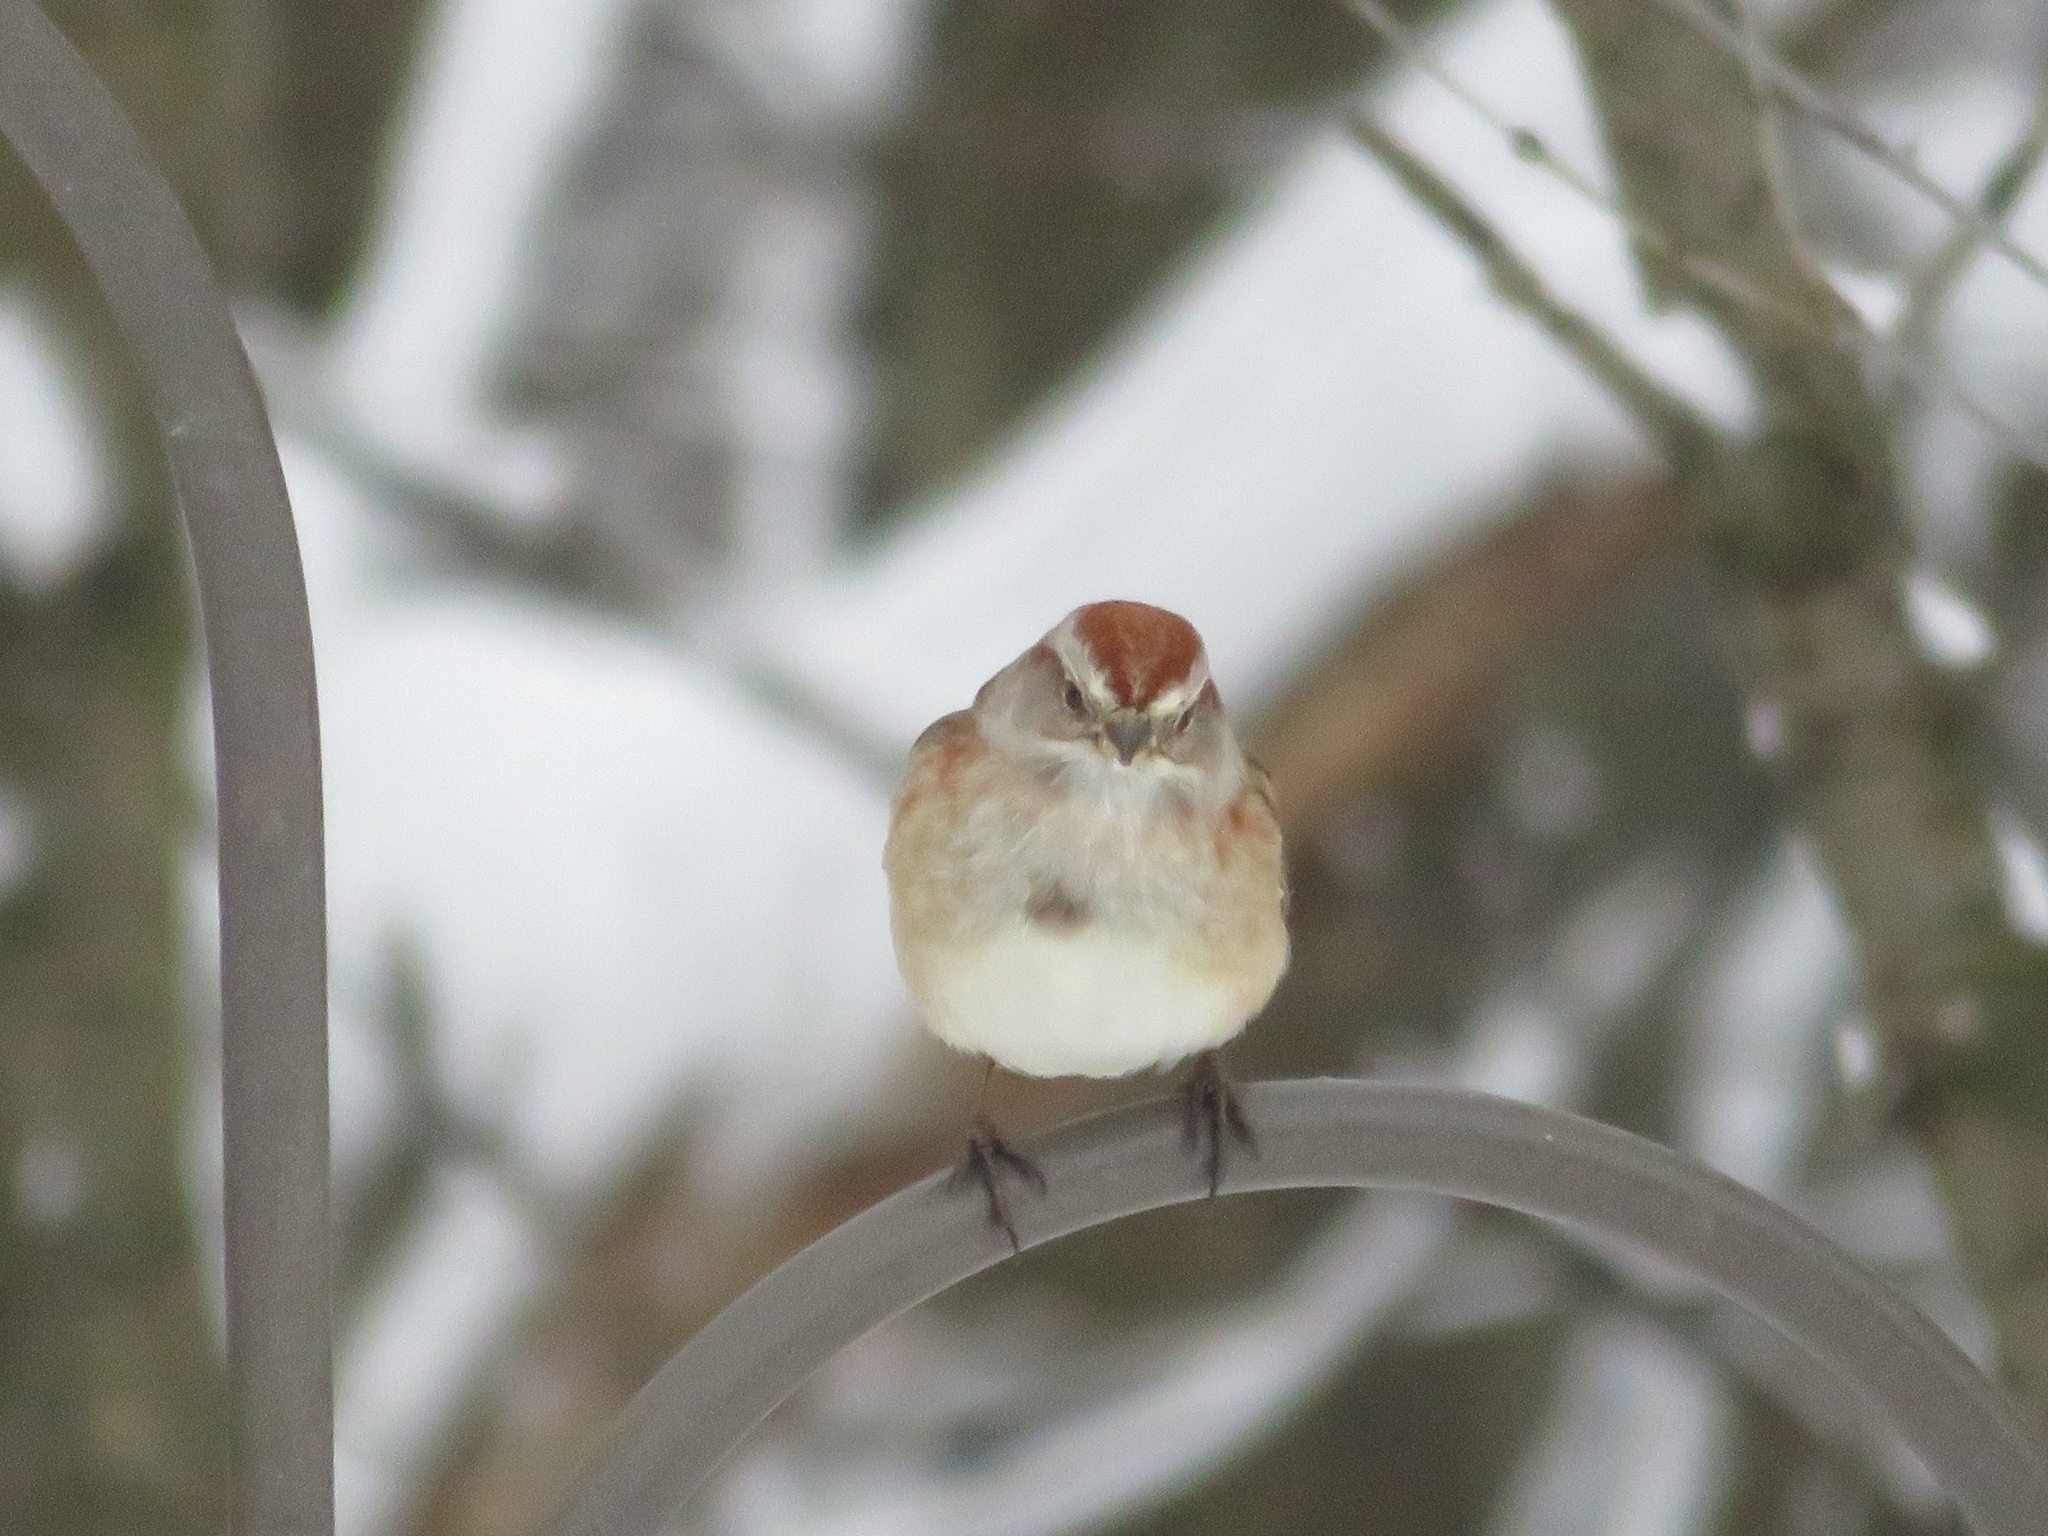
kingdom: Animalia
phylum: Chordata
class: Aves
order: Passeriformes
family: Passerellidae
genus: Spizelloides
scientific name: Spizelloides arborea
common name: American tree sparrow
